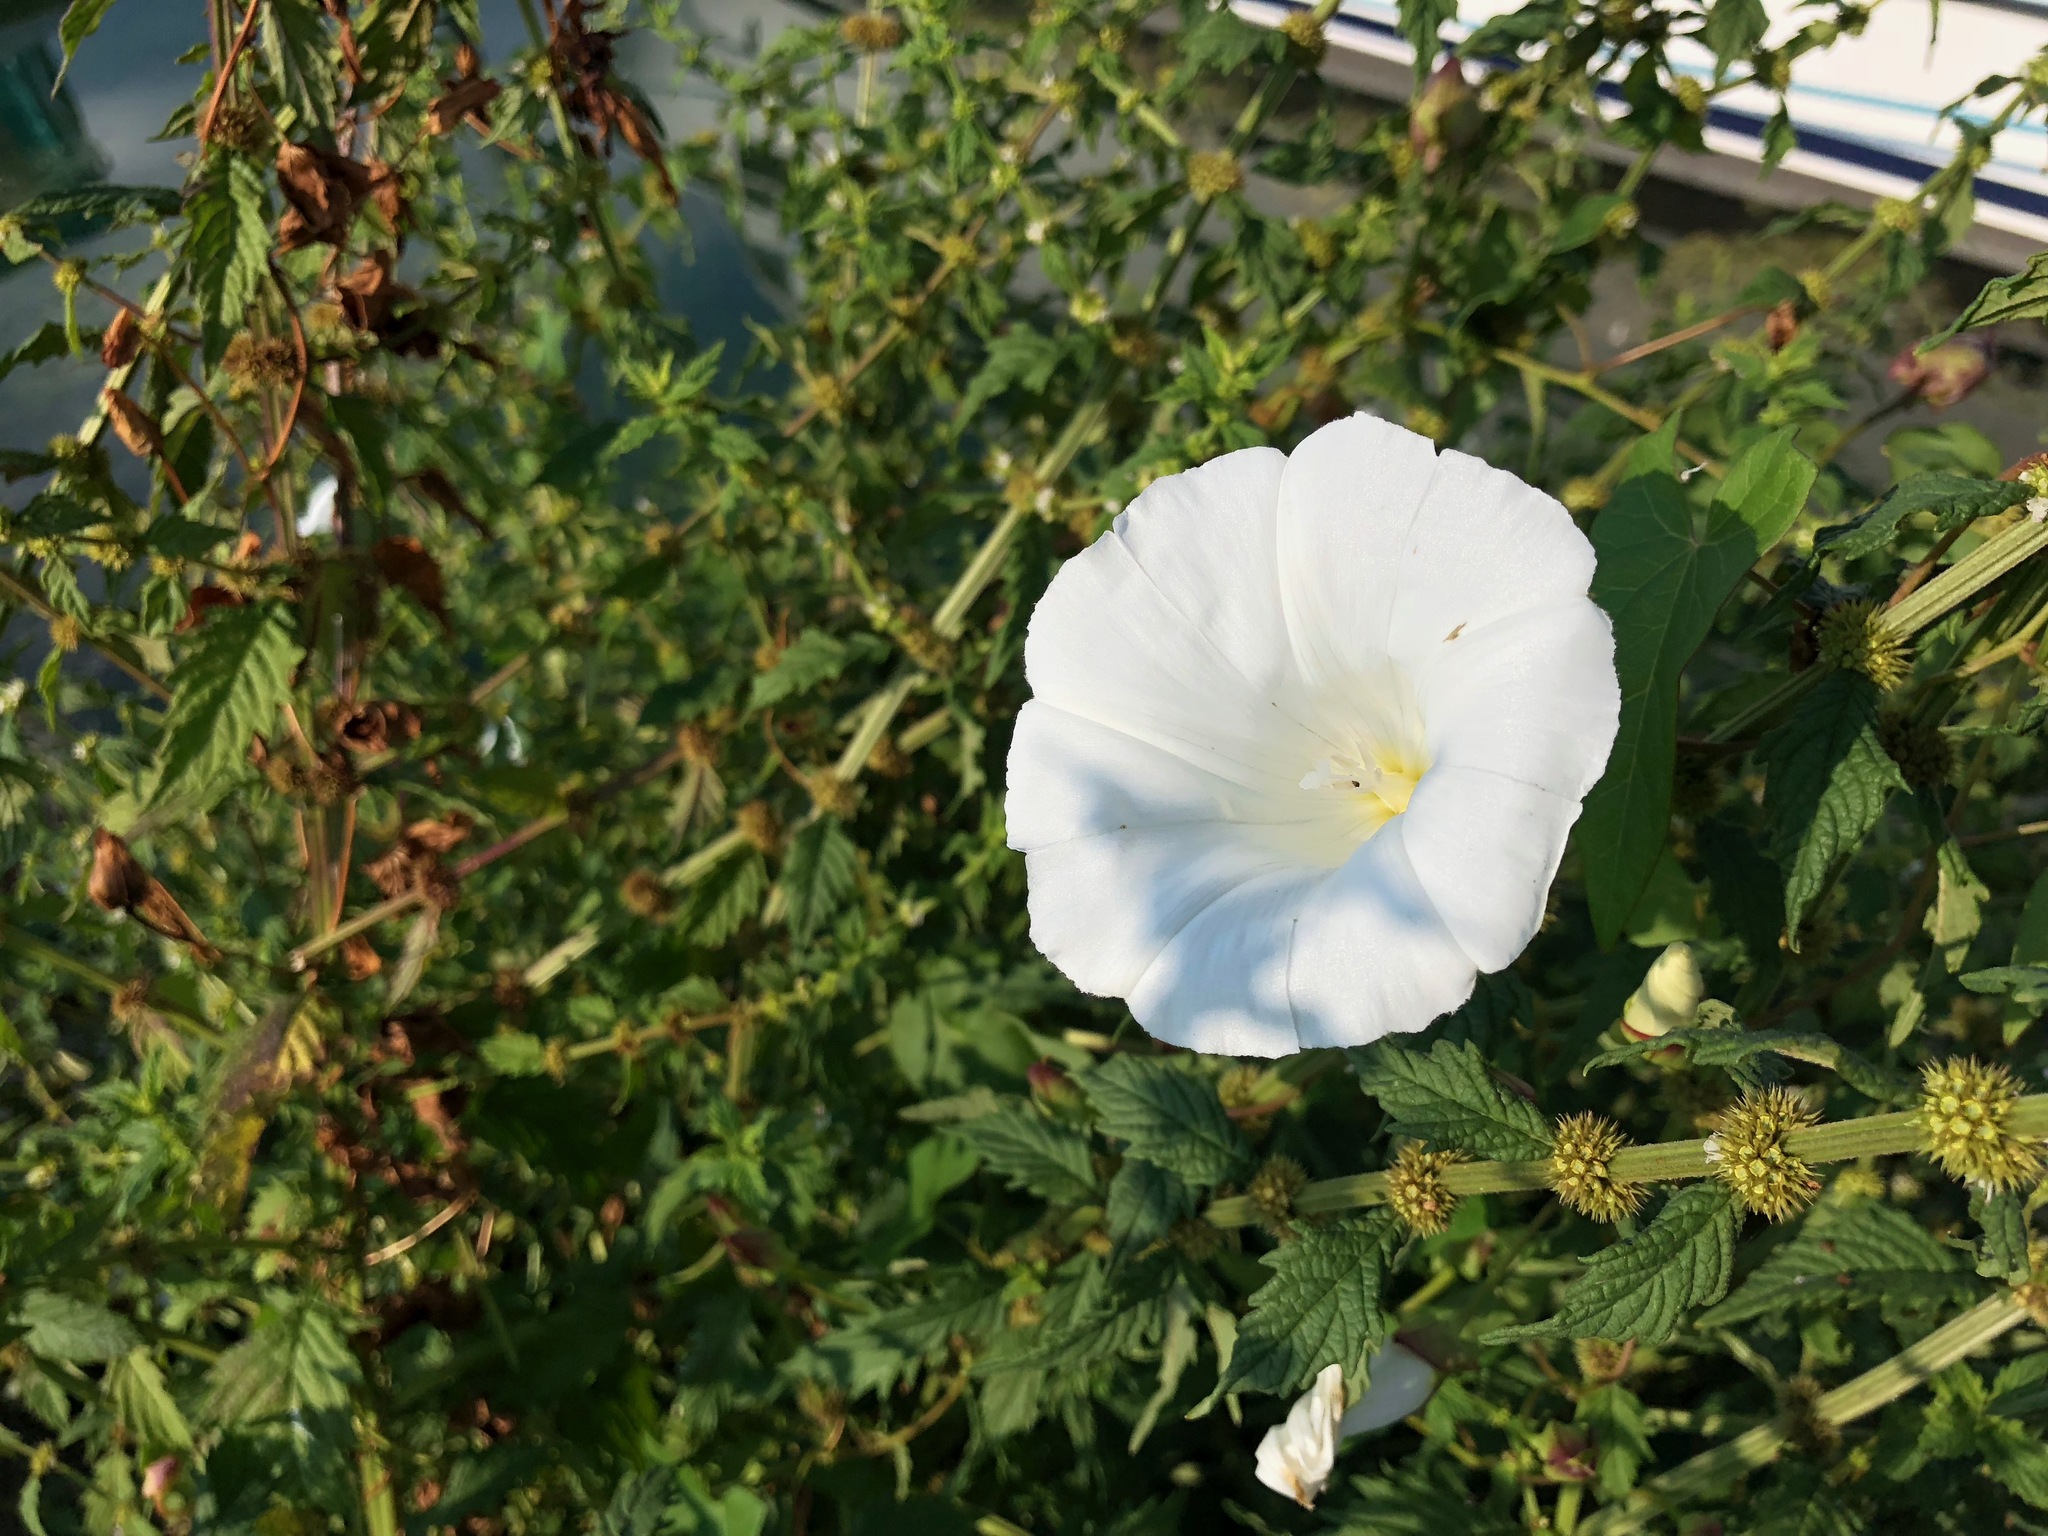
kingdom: Plantae
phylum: Tracheophyta
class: Magnoliopsida
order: Solanales
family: Convolvulaceae
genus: Calystegia
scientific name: Calystegia sepium
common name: Hedge bindweed
